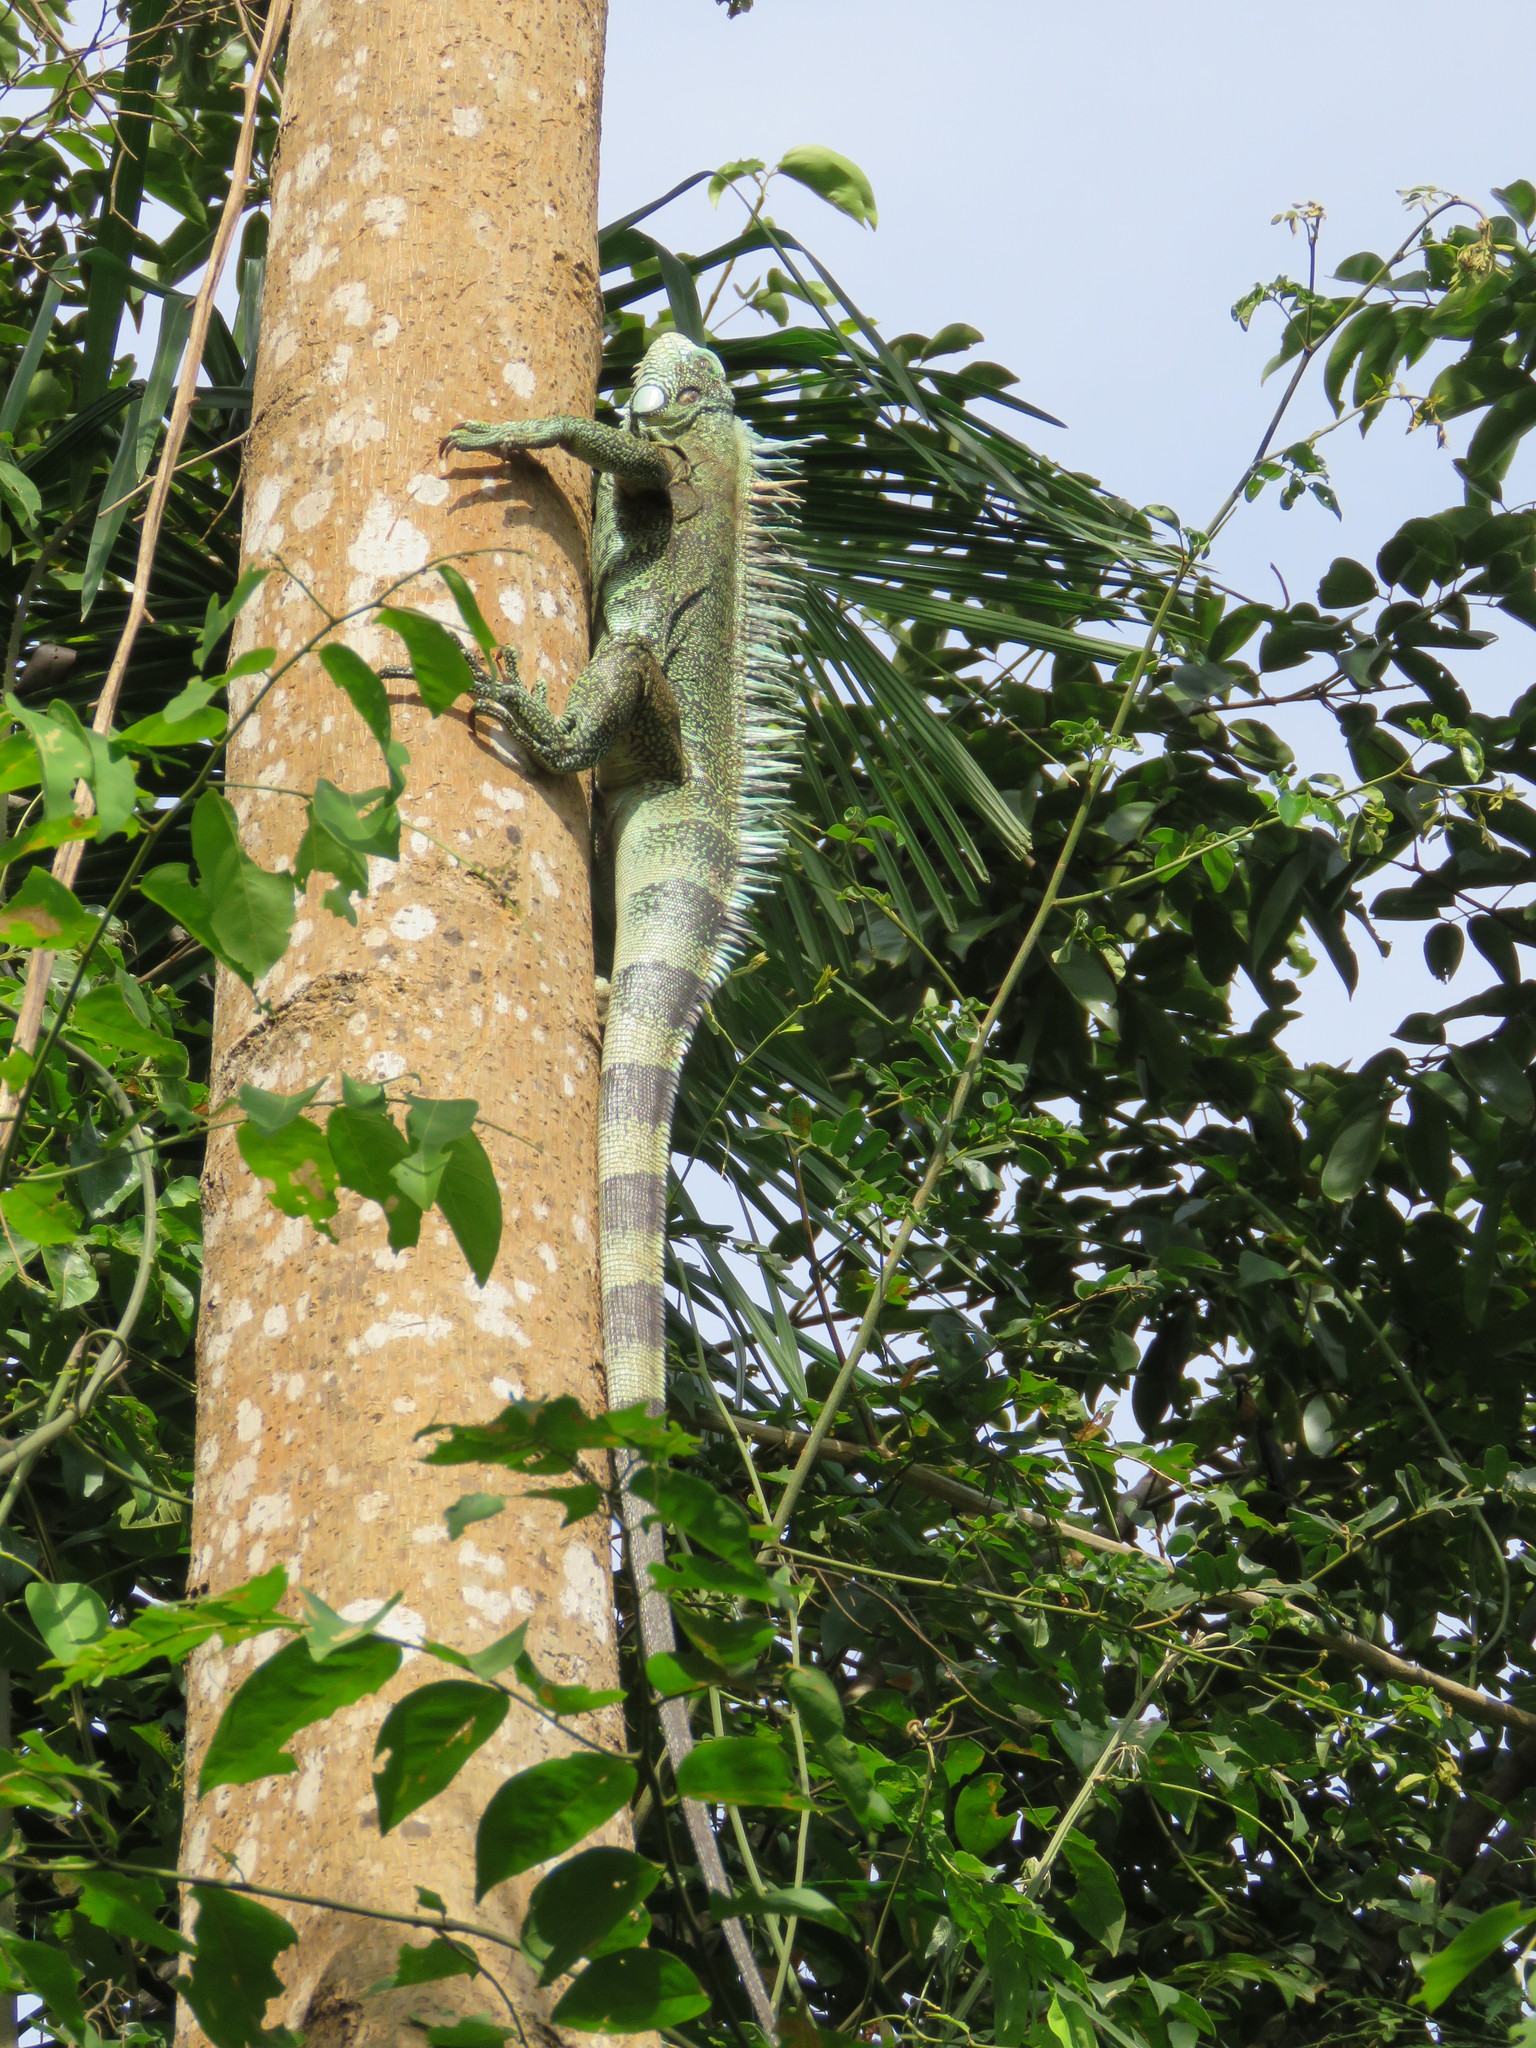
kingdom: Animalia
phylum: Chordata
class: Squamata
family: Iguanidae
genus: Iguana
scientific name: Iguana iguana
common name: Green iguana
